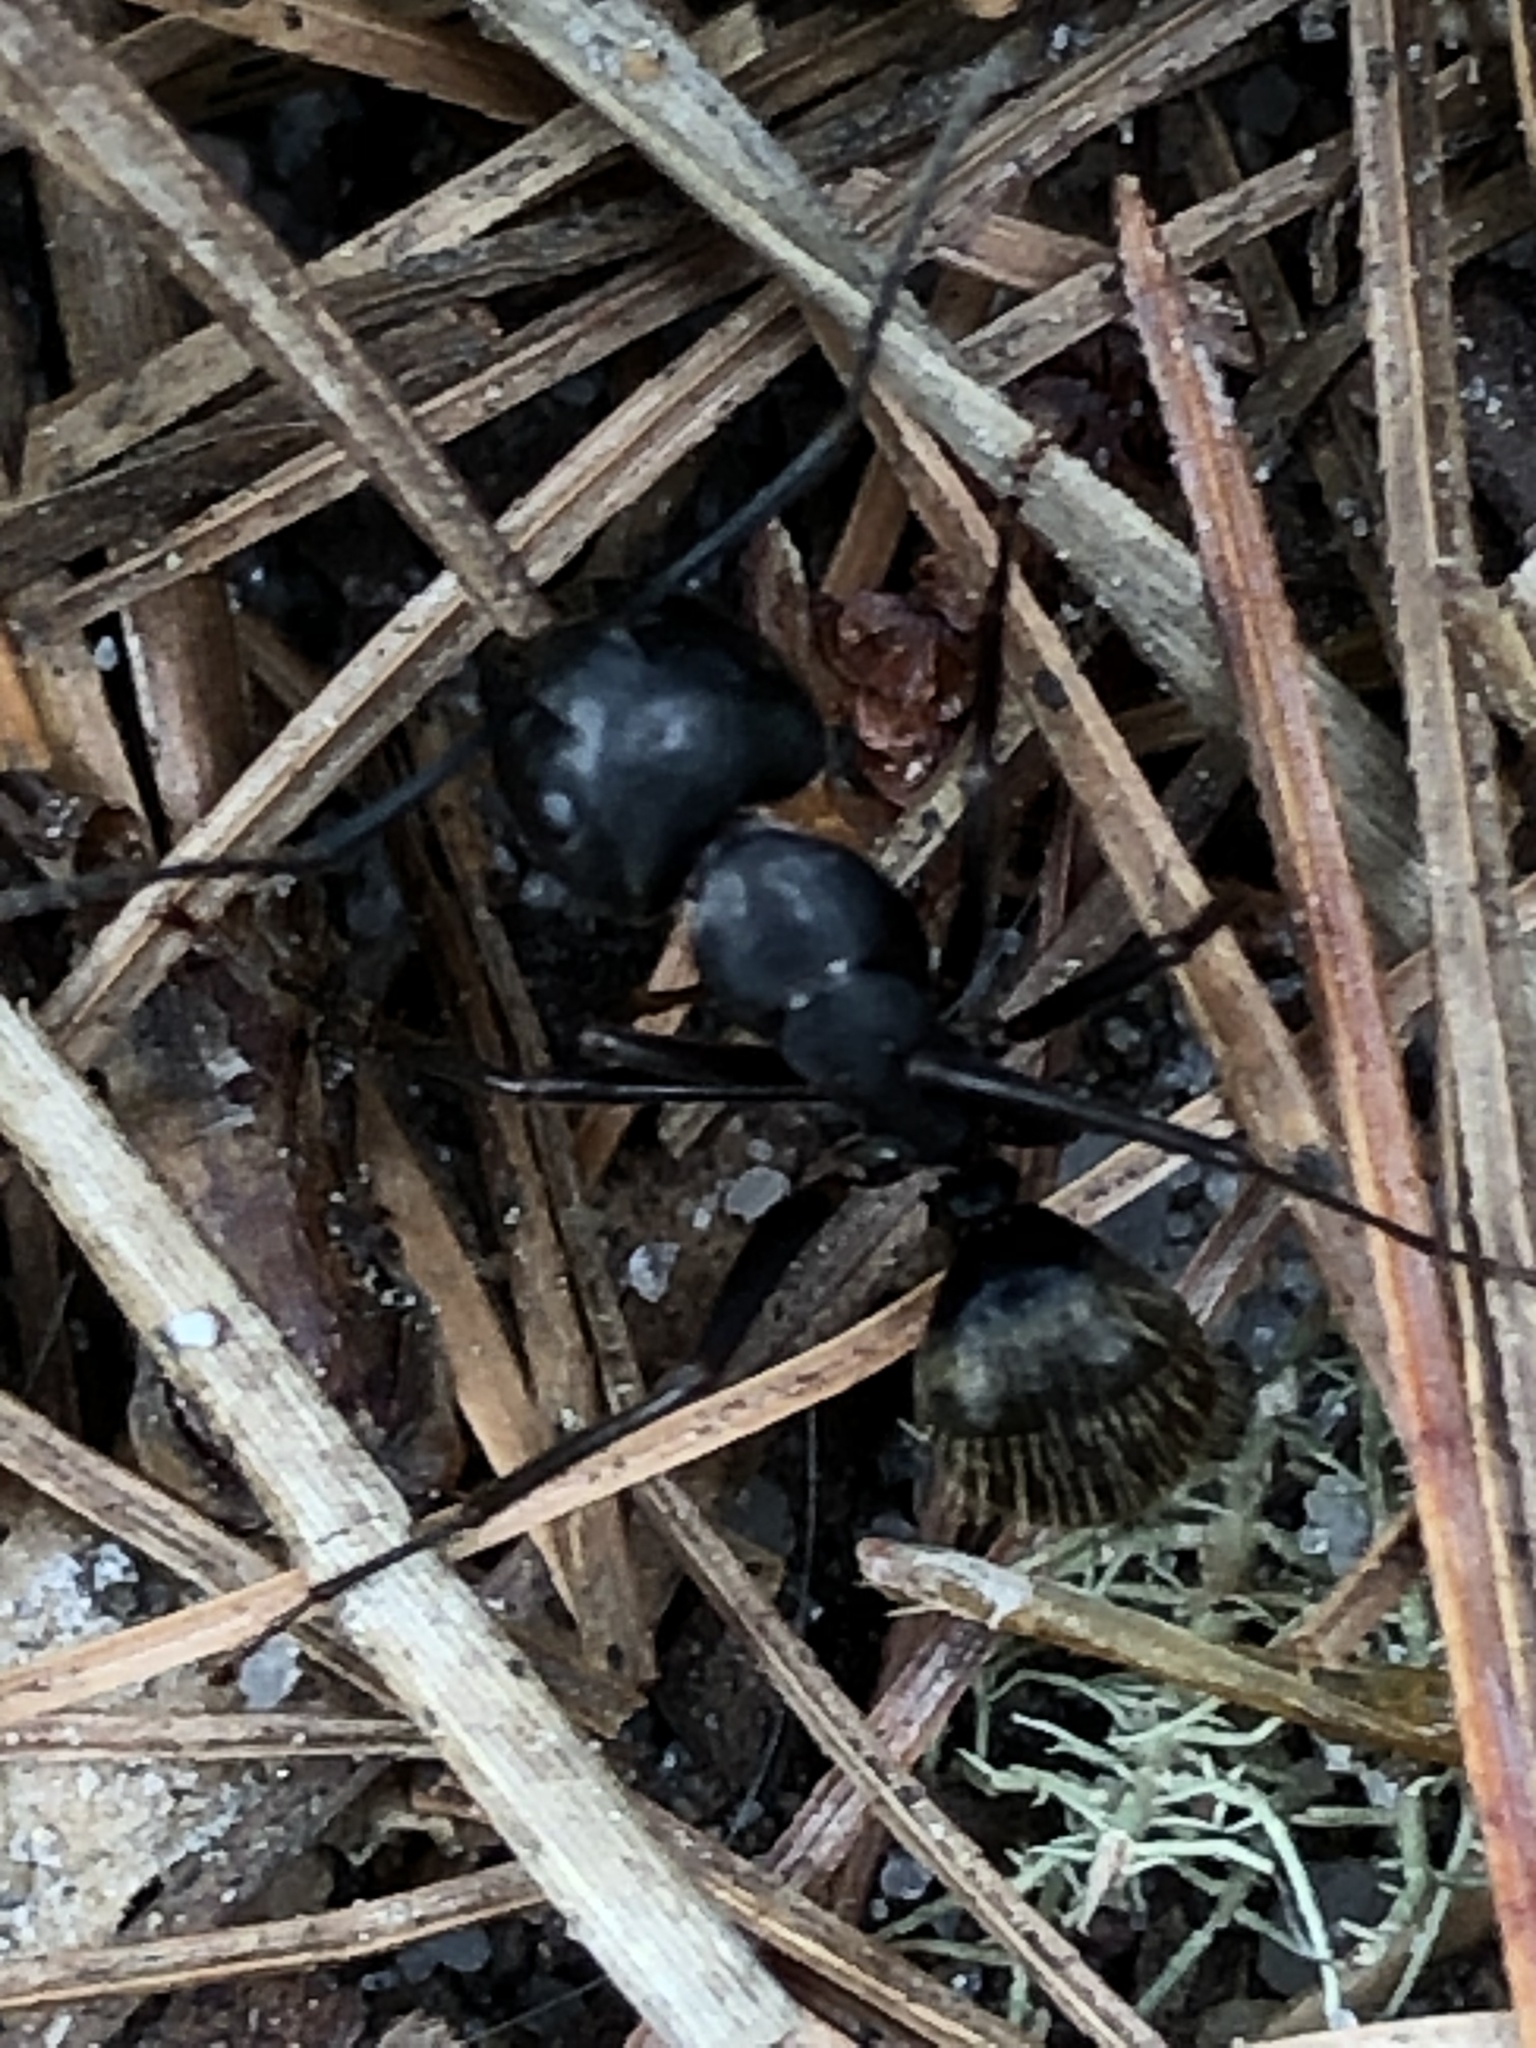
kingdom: Animalia
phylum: Arthropoda
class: Insecta
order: Hymenoptera
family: Formicidae
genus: Camponotus
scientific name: Camponotus pennsylvanicus
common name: Black carpenter ant
